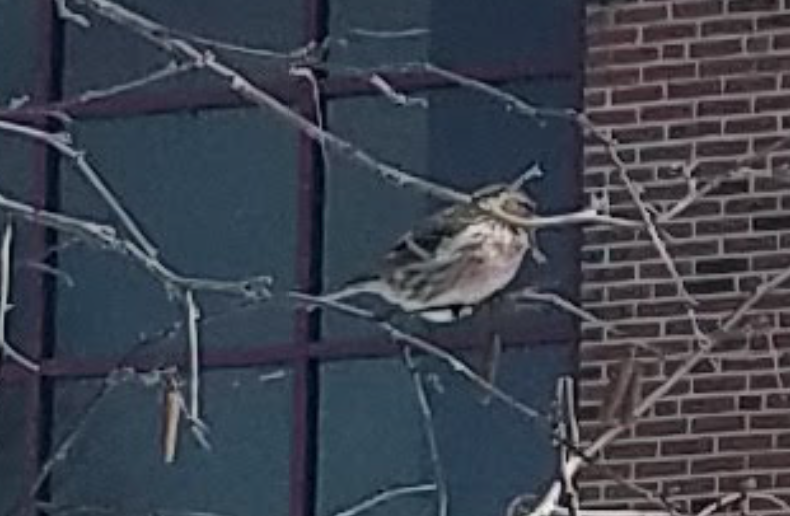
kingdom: Animalia
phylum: Chordata
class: Aves
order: Passeriformes
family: Fringillidae
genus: Acanthis
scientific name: Acanthis flammea
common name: Common redpoll
